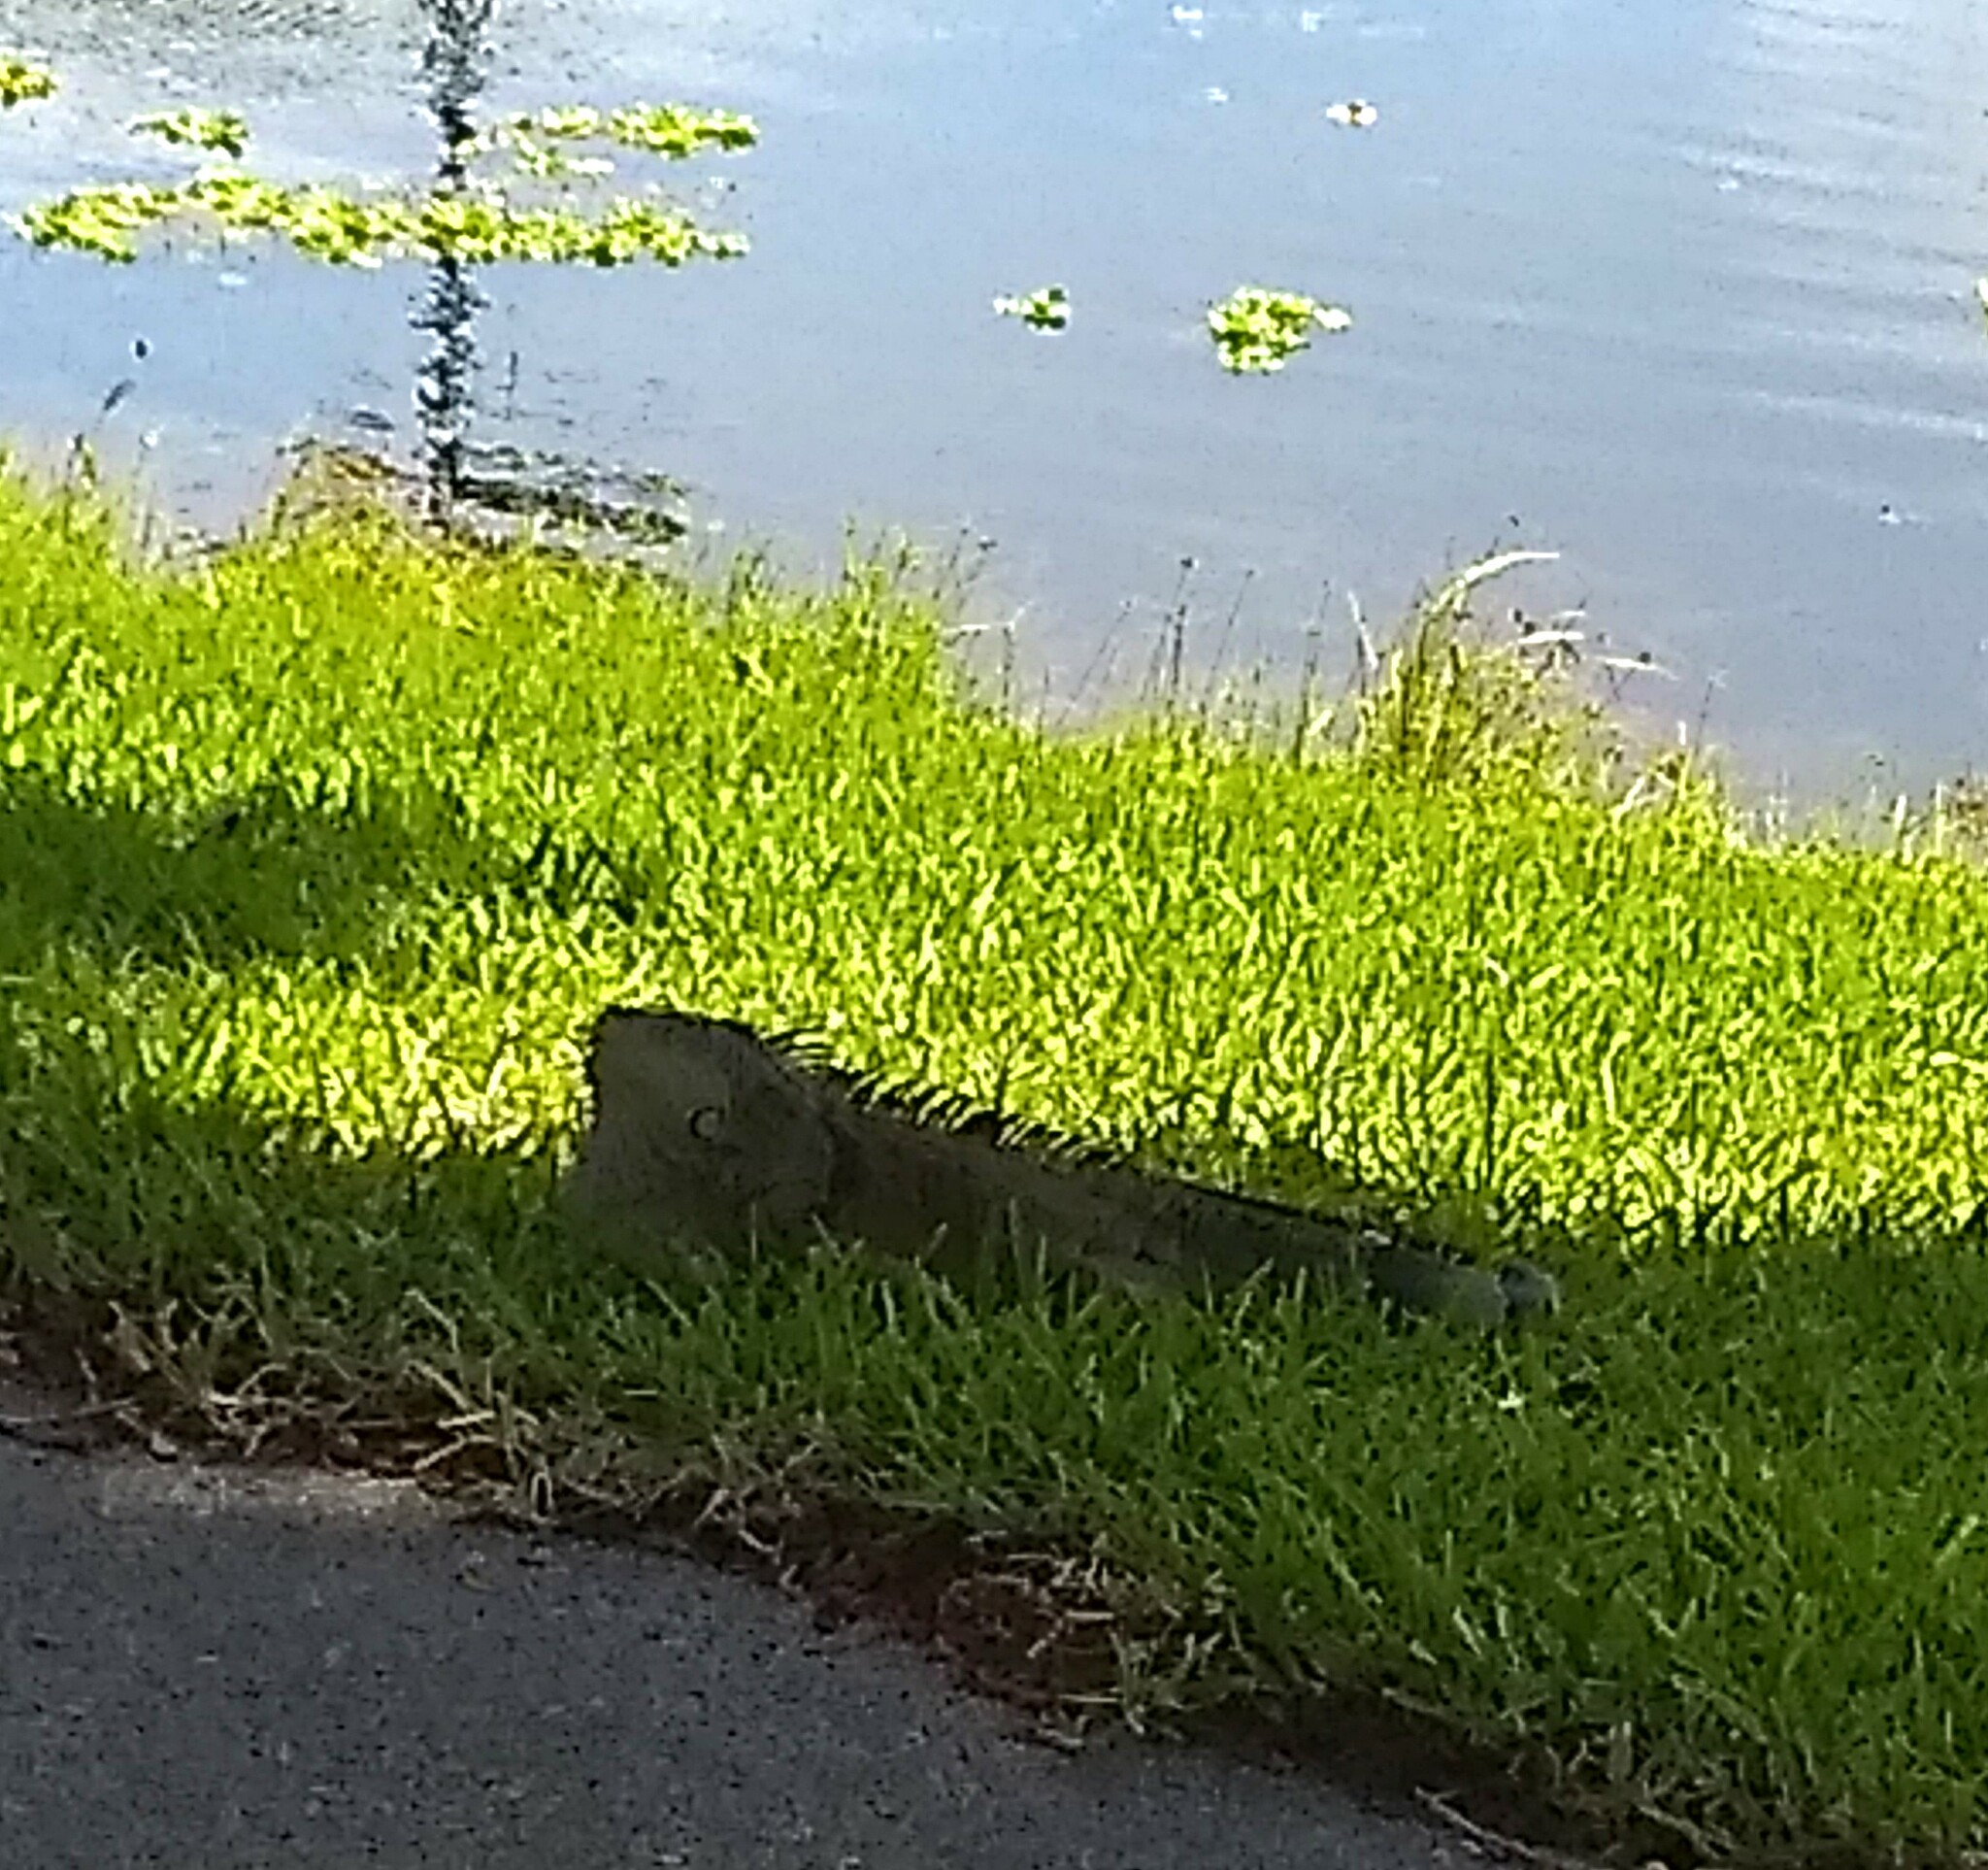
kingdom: Animalia
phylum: Chordata
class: Squamata
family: Iguanidae
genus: Iguana
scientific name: Iguana iguana
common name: Green iguana
